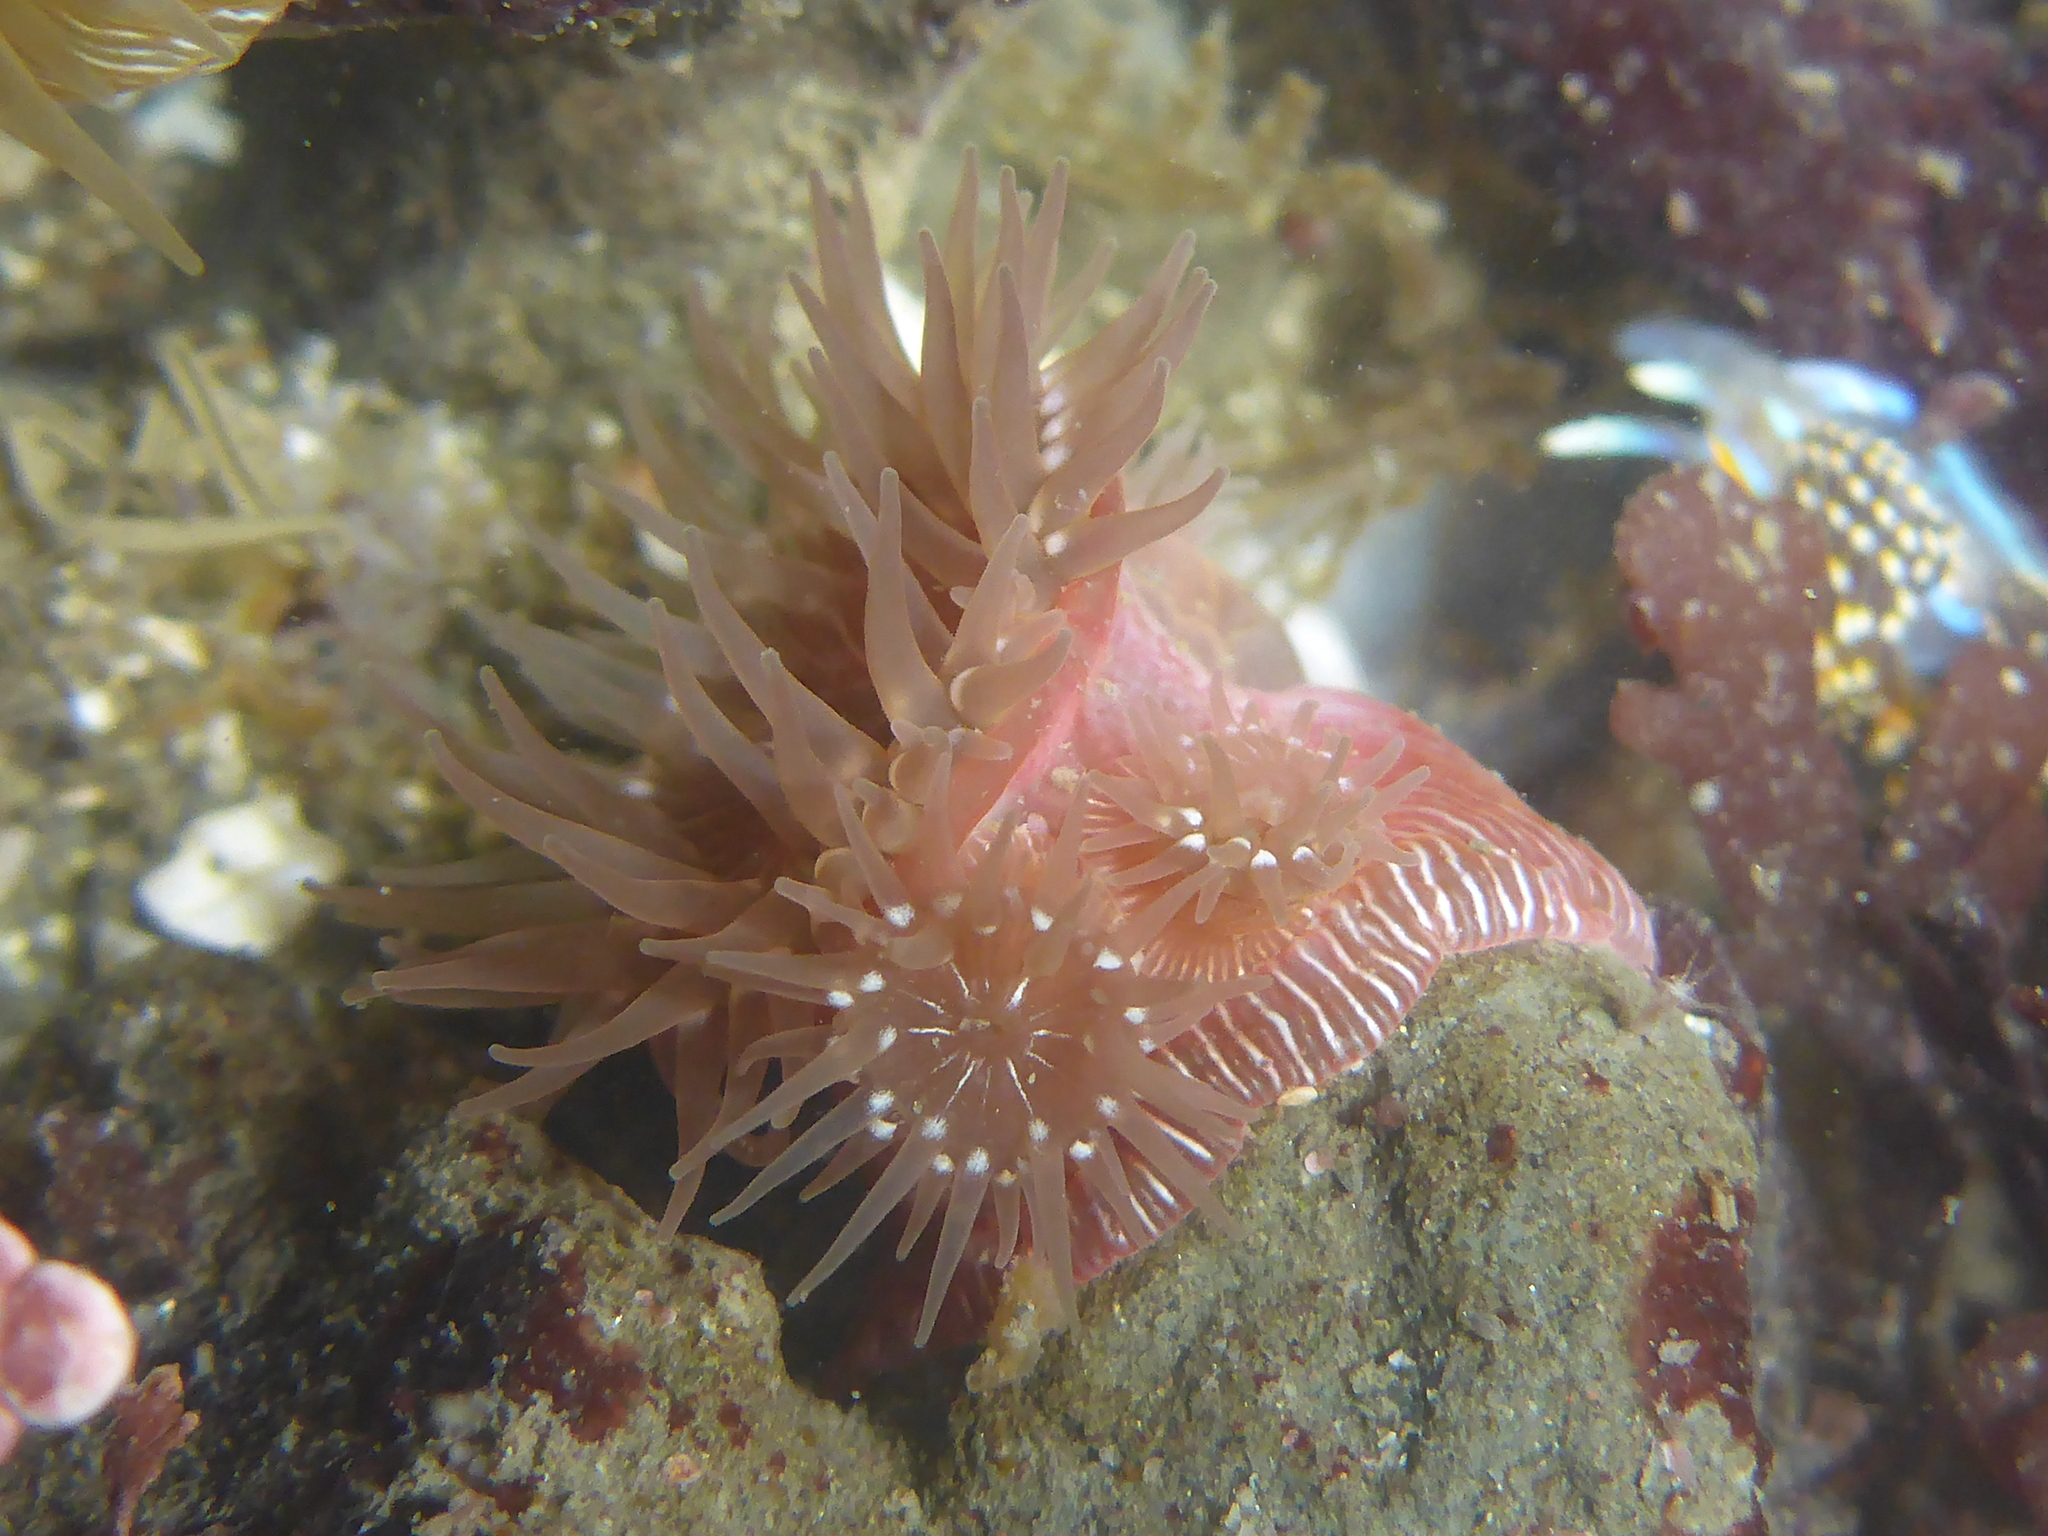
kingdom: Animalia
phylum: Cnidaria
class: Anthozoa
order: Actiniaria
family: Actiniidae
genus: Epiactis
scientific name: Epiactis prolifera
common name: Brooding anemone
